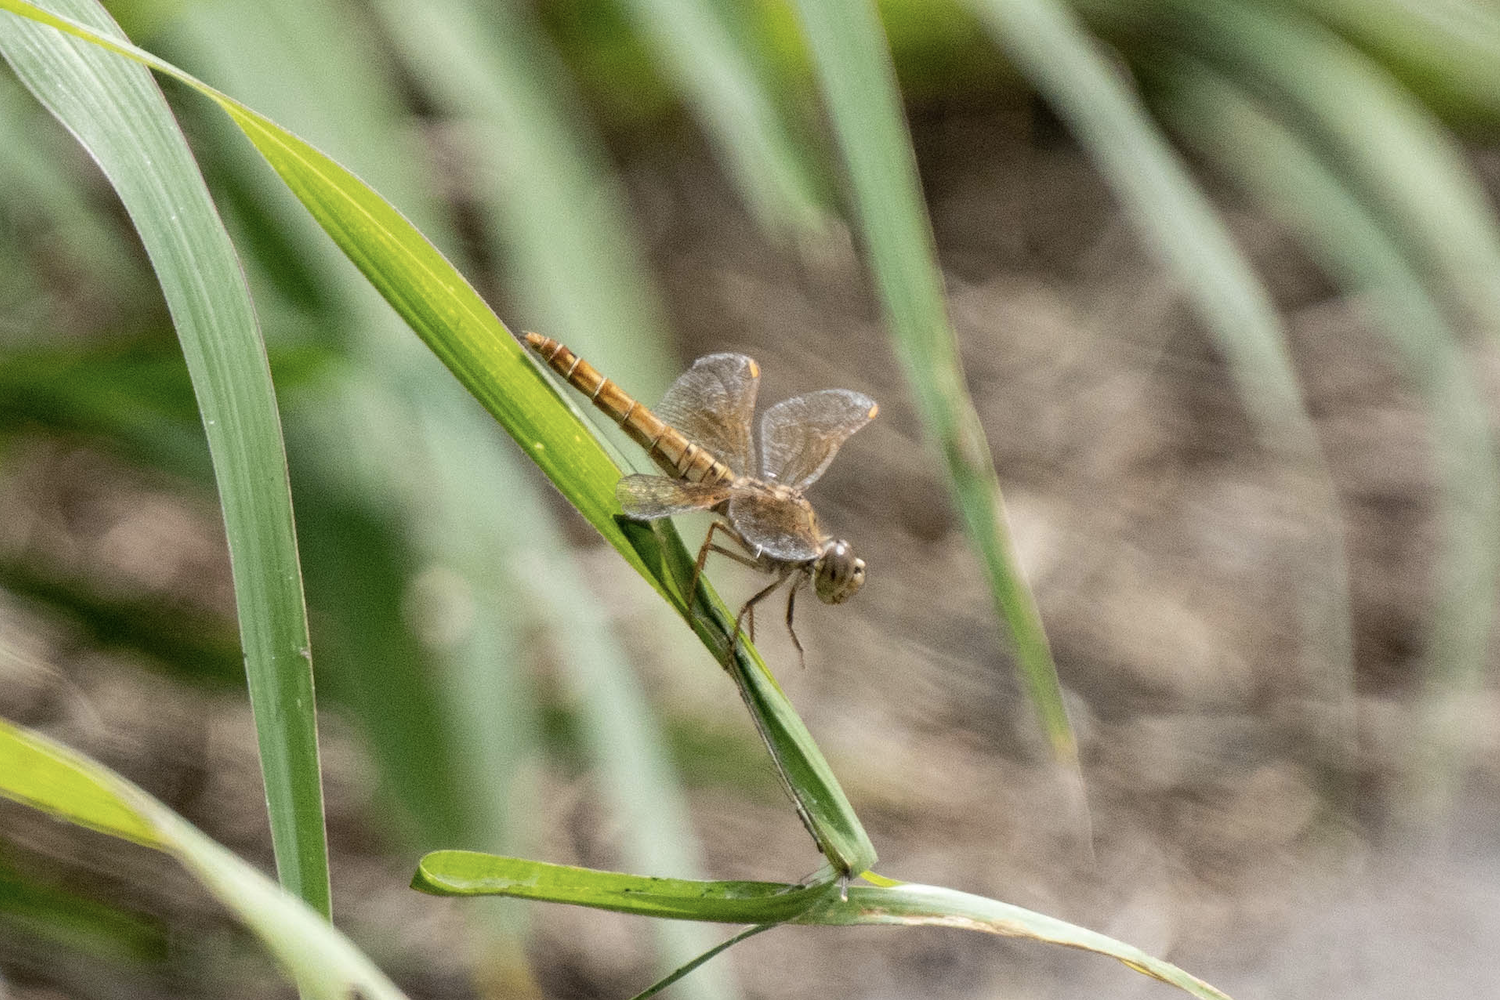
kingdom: Animalia
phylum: Arthropoda
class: Insecta
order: Odonata
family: Libellulidae
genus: Brachythemis
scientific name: Brachythemis contaminata
